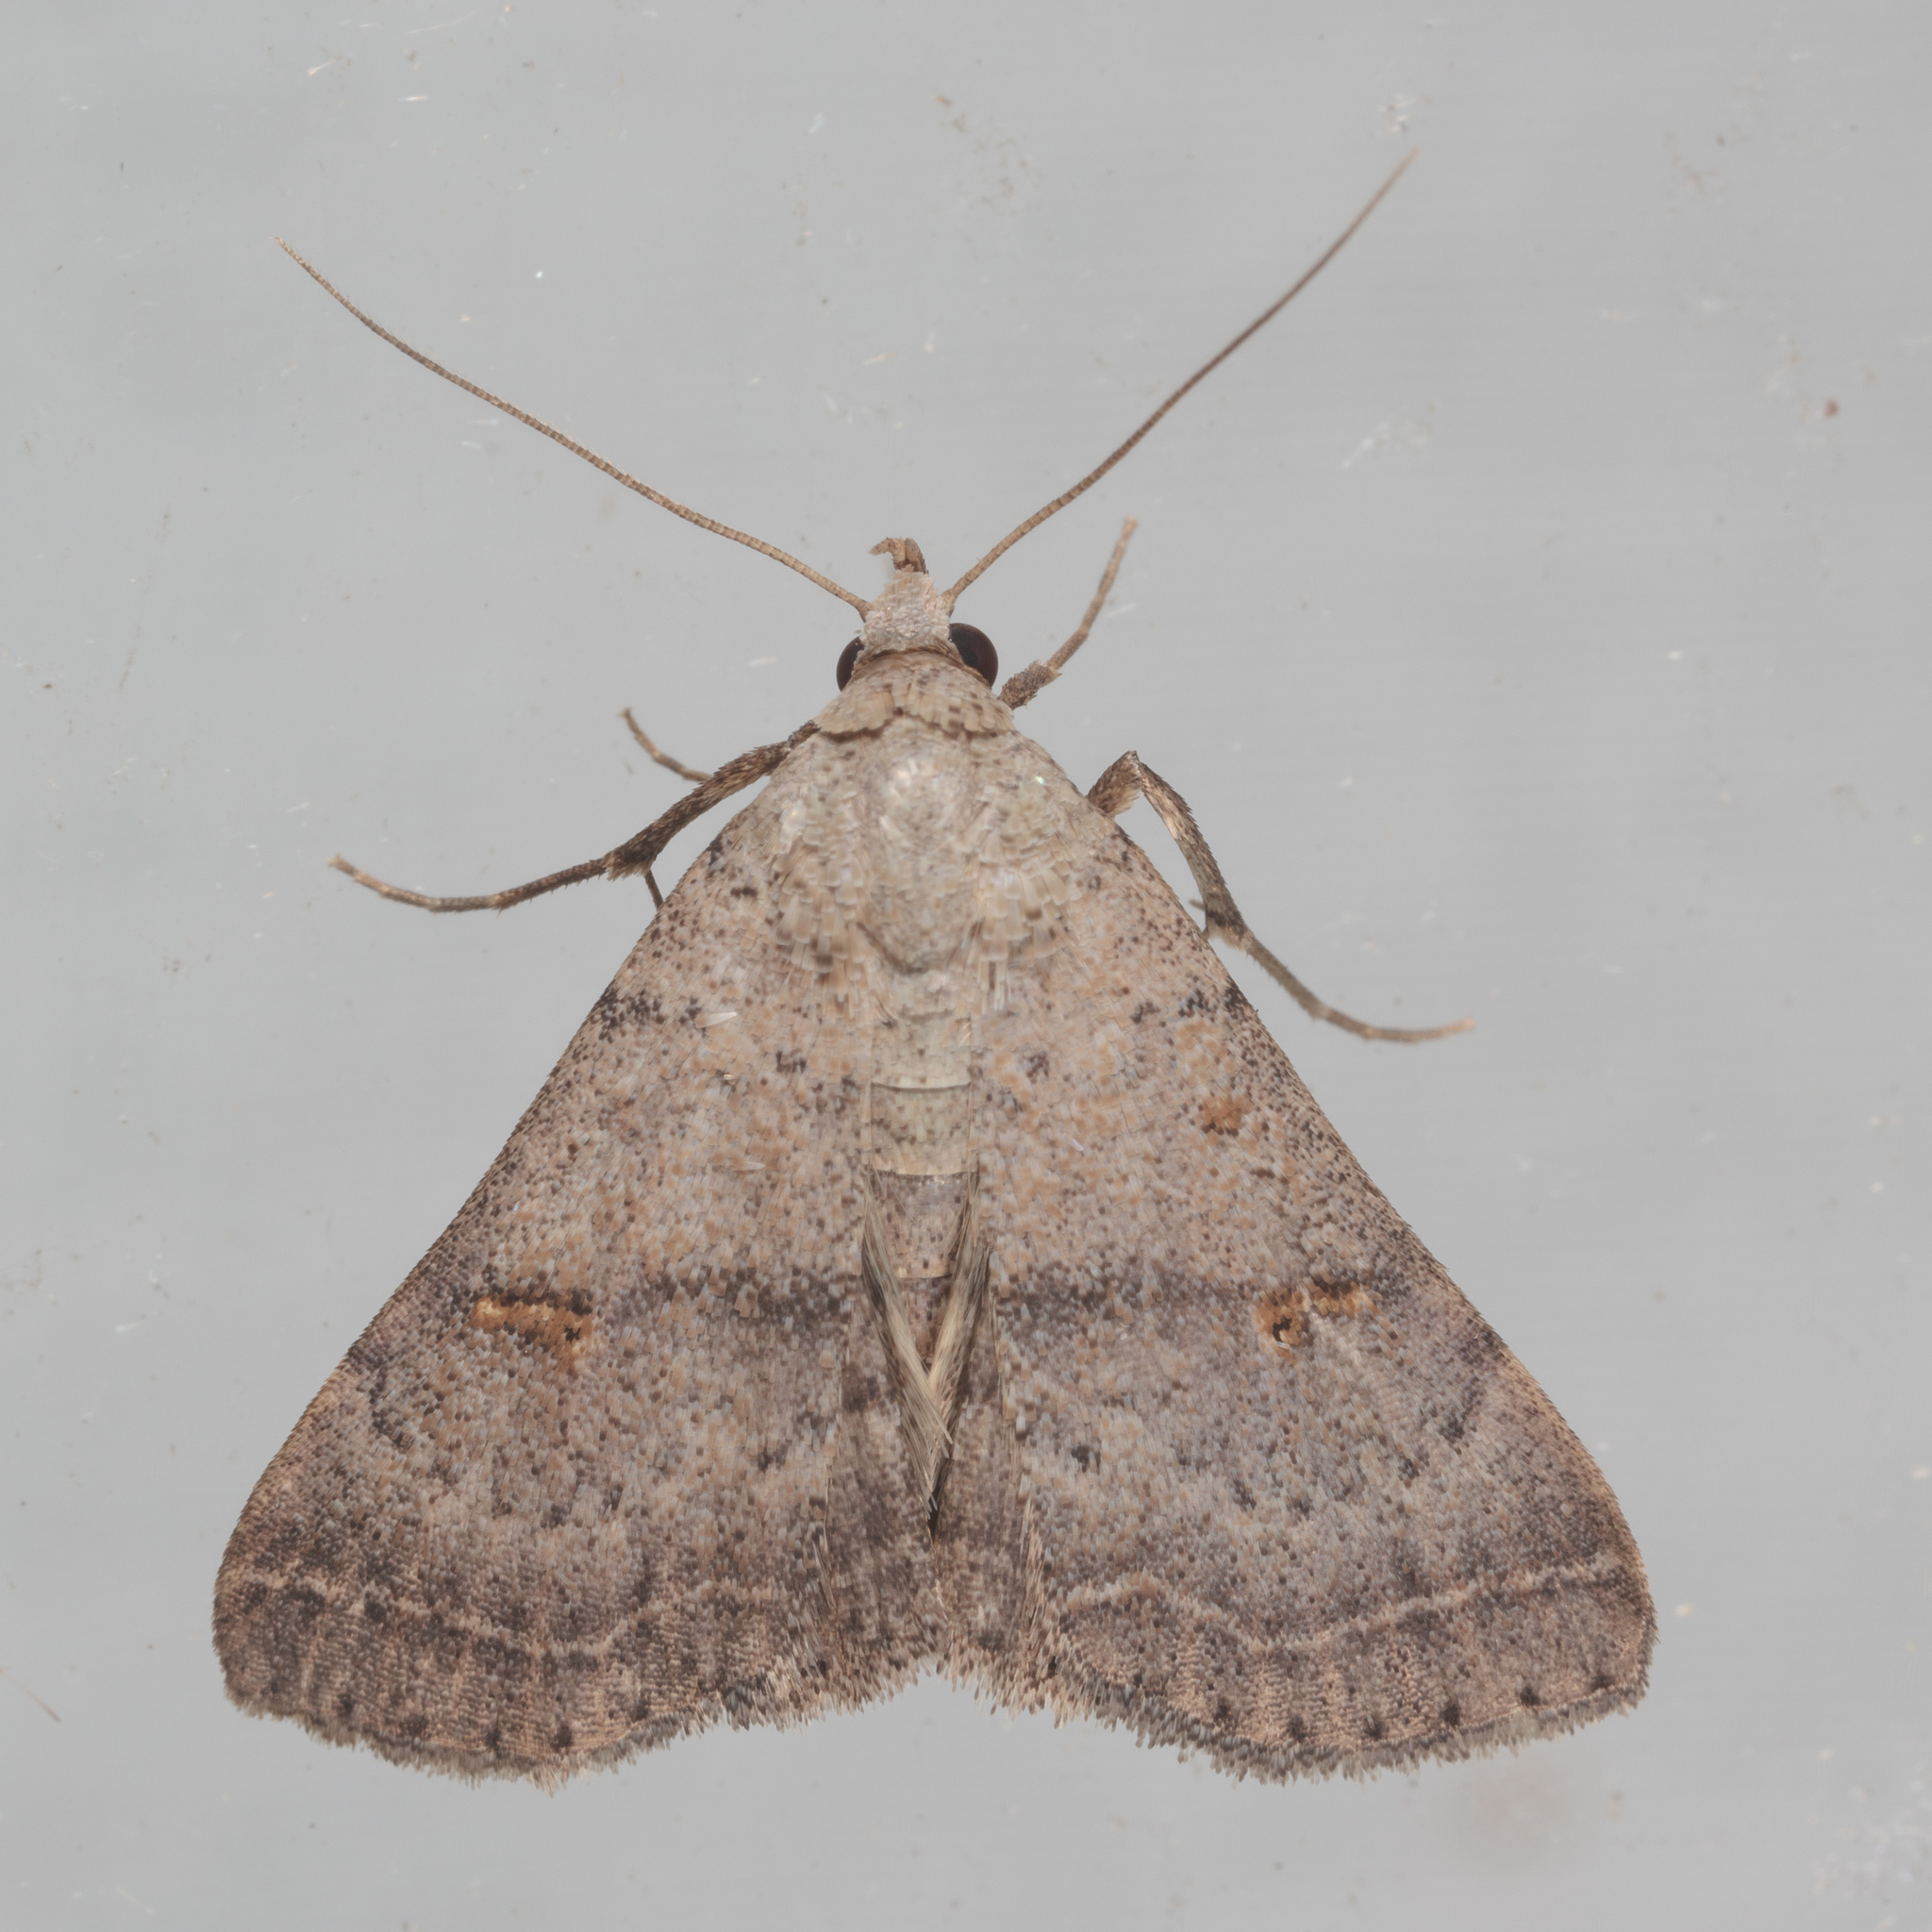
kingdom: Animalia
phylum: Arthropoda
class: Insecta
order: Lepidoptera
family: Erebidae
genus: Bleptina
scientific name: Bleptina caradrinalis
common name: Bent-winged owlet
